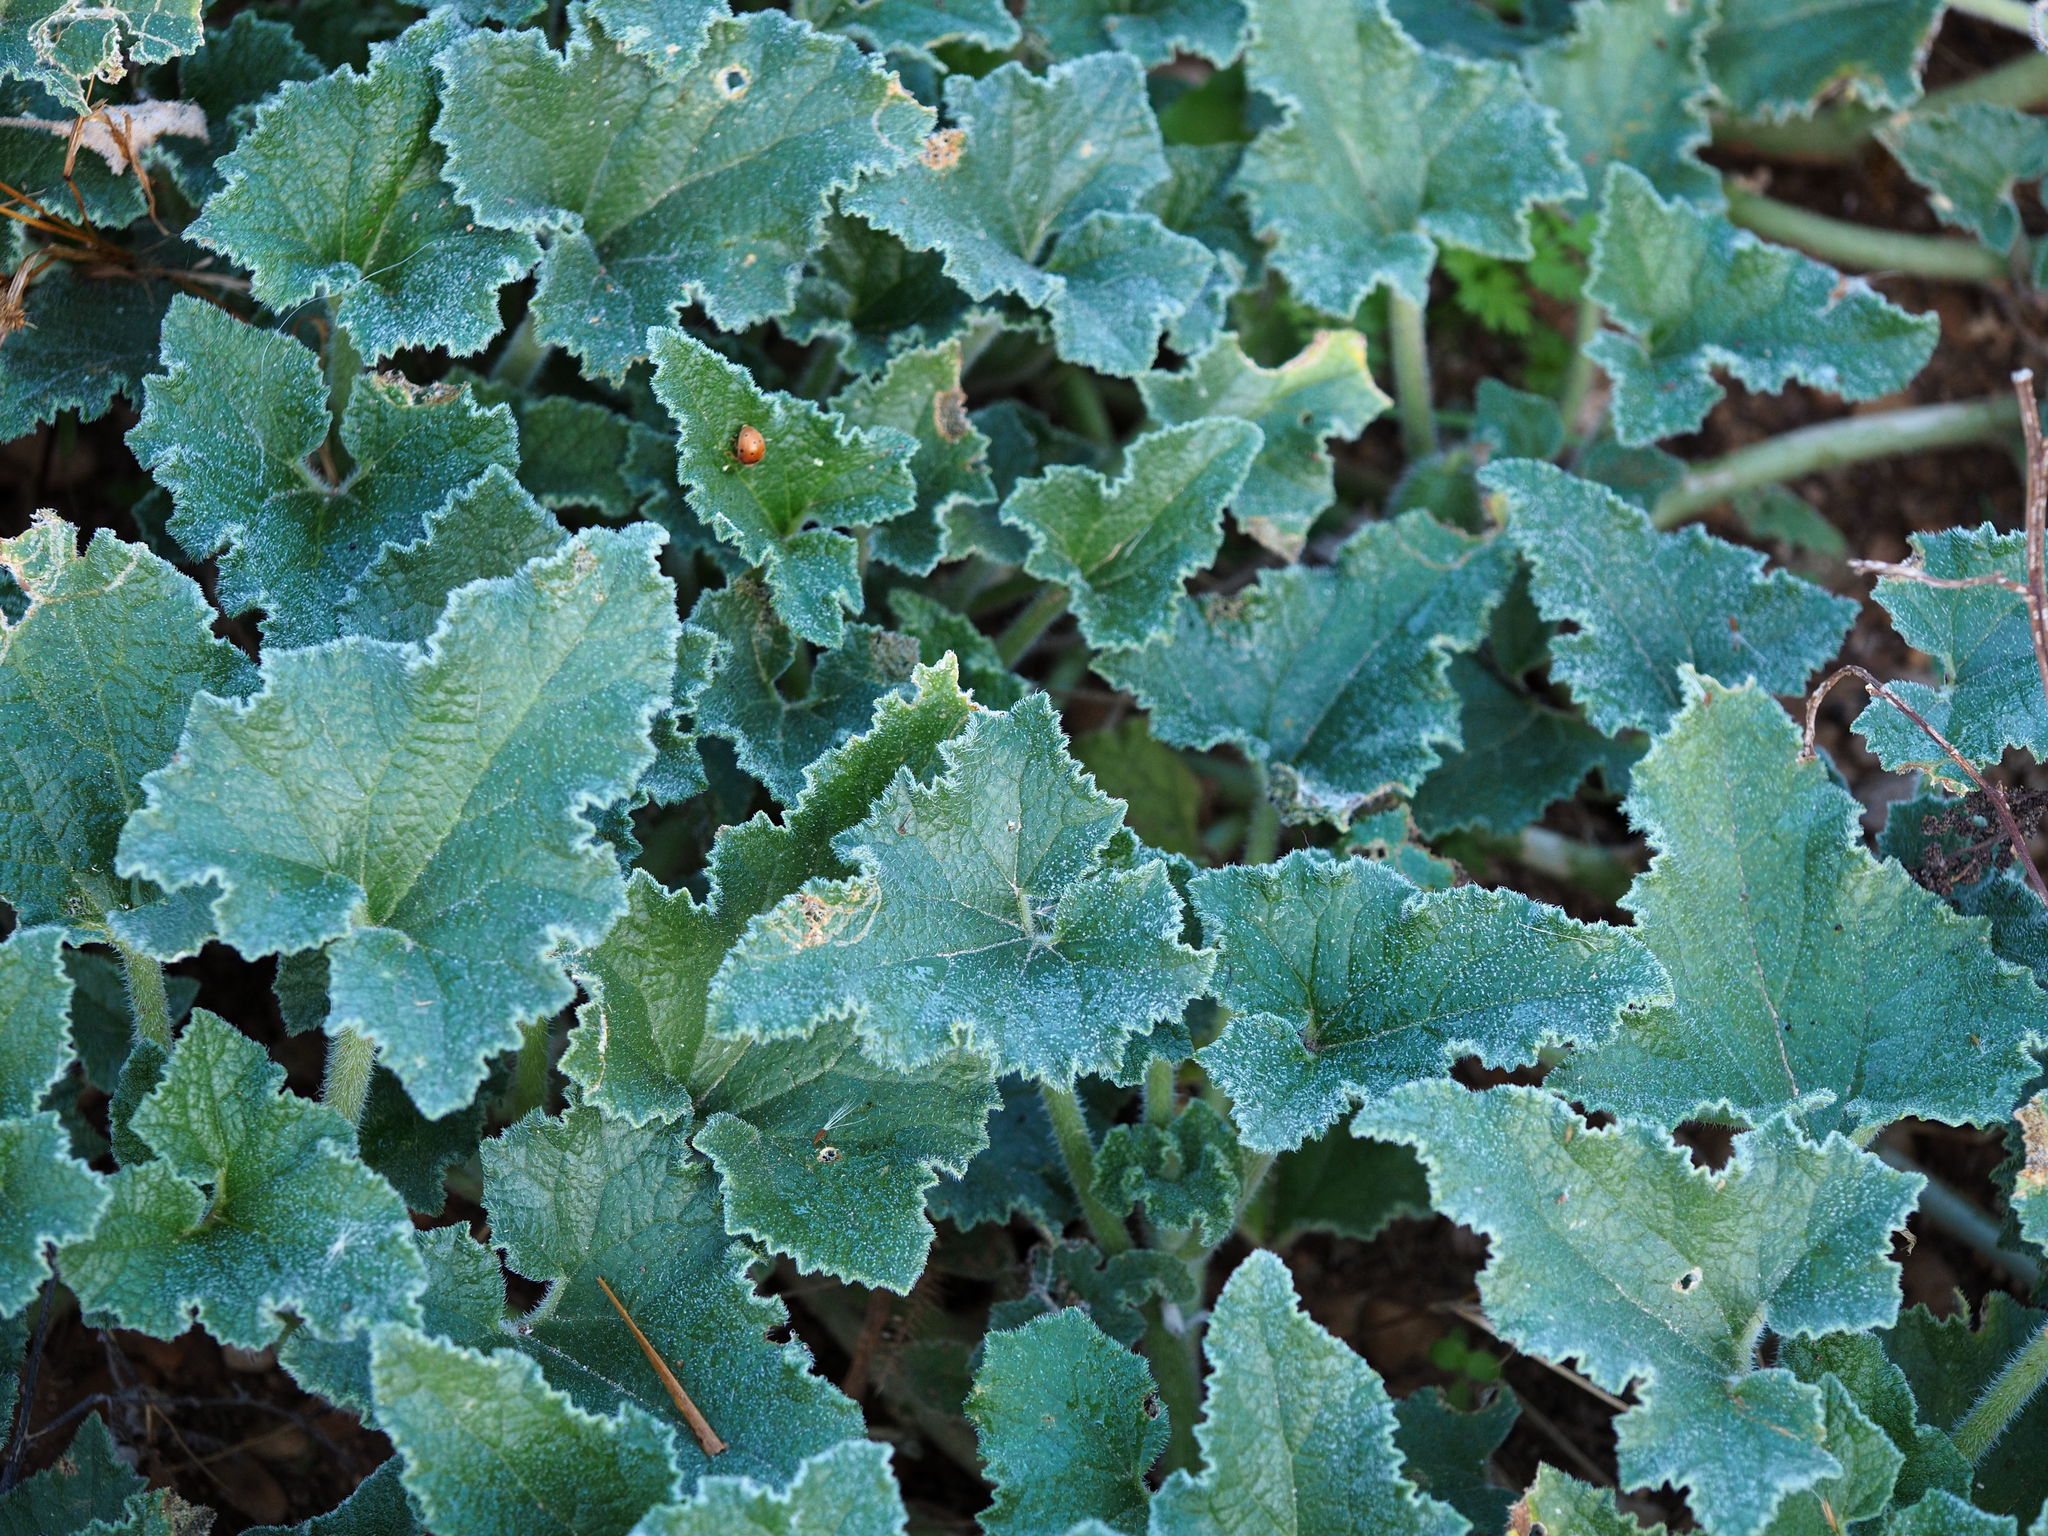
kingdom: Plantae
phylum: Tracheophyta
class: Magnoliopsida
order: Cucurbitales
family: Cucurbitaceae
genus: Ecballium
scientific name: Ecballium elaterium
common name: Squirting cucumber
